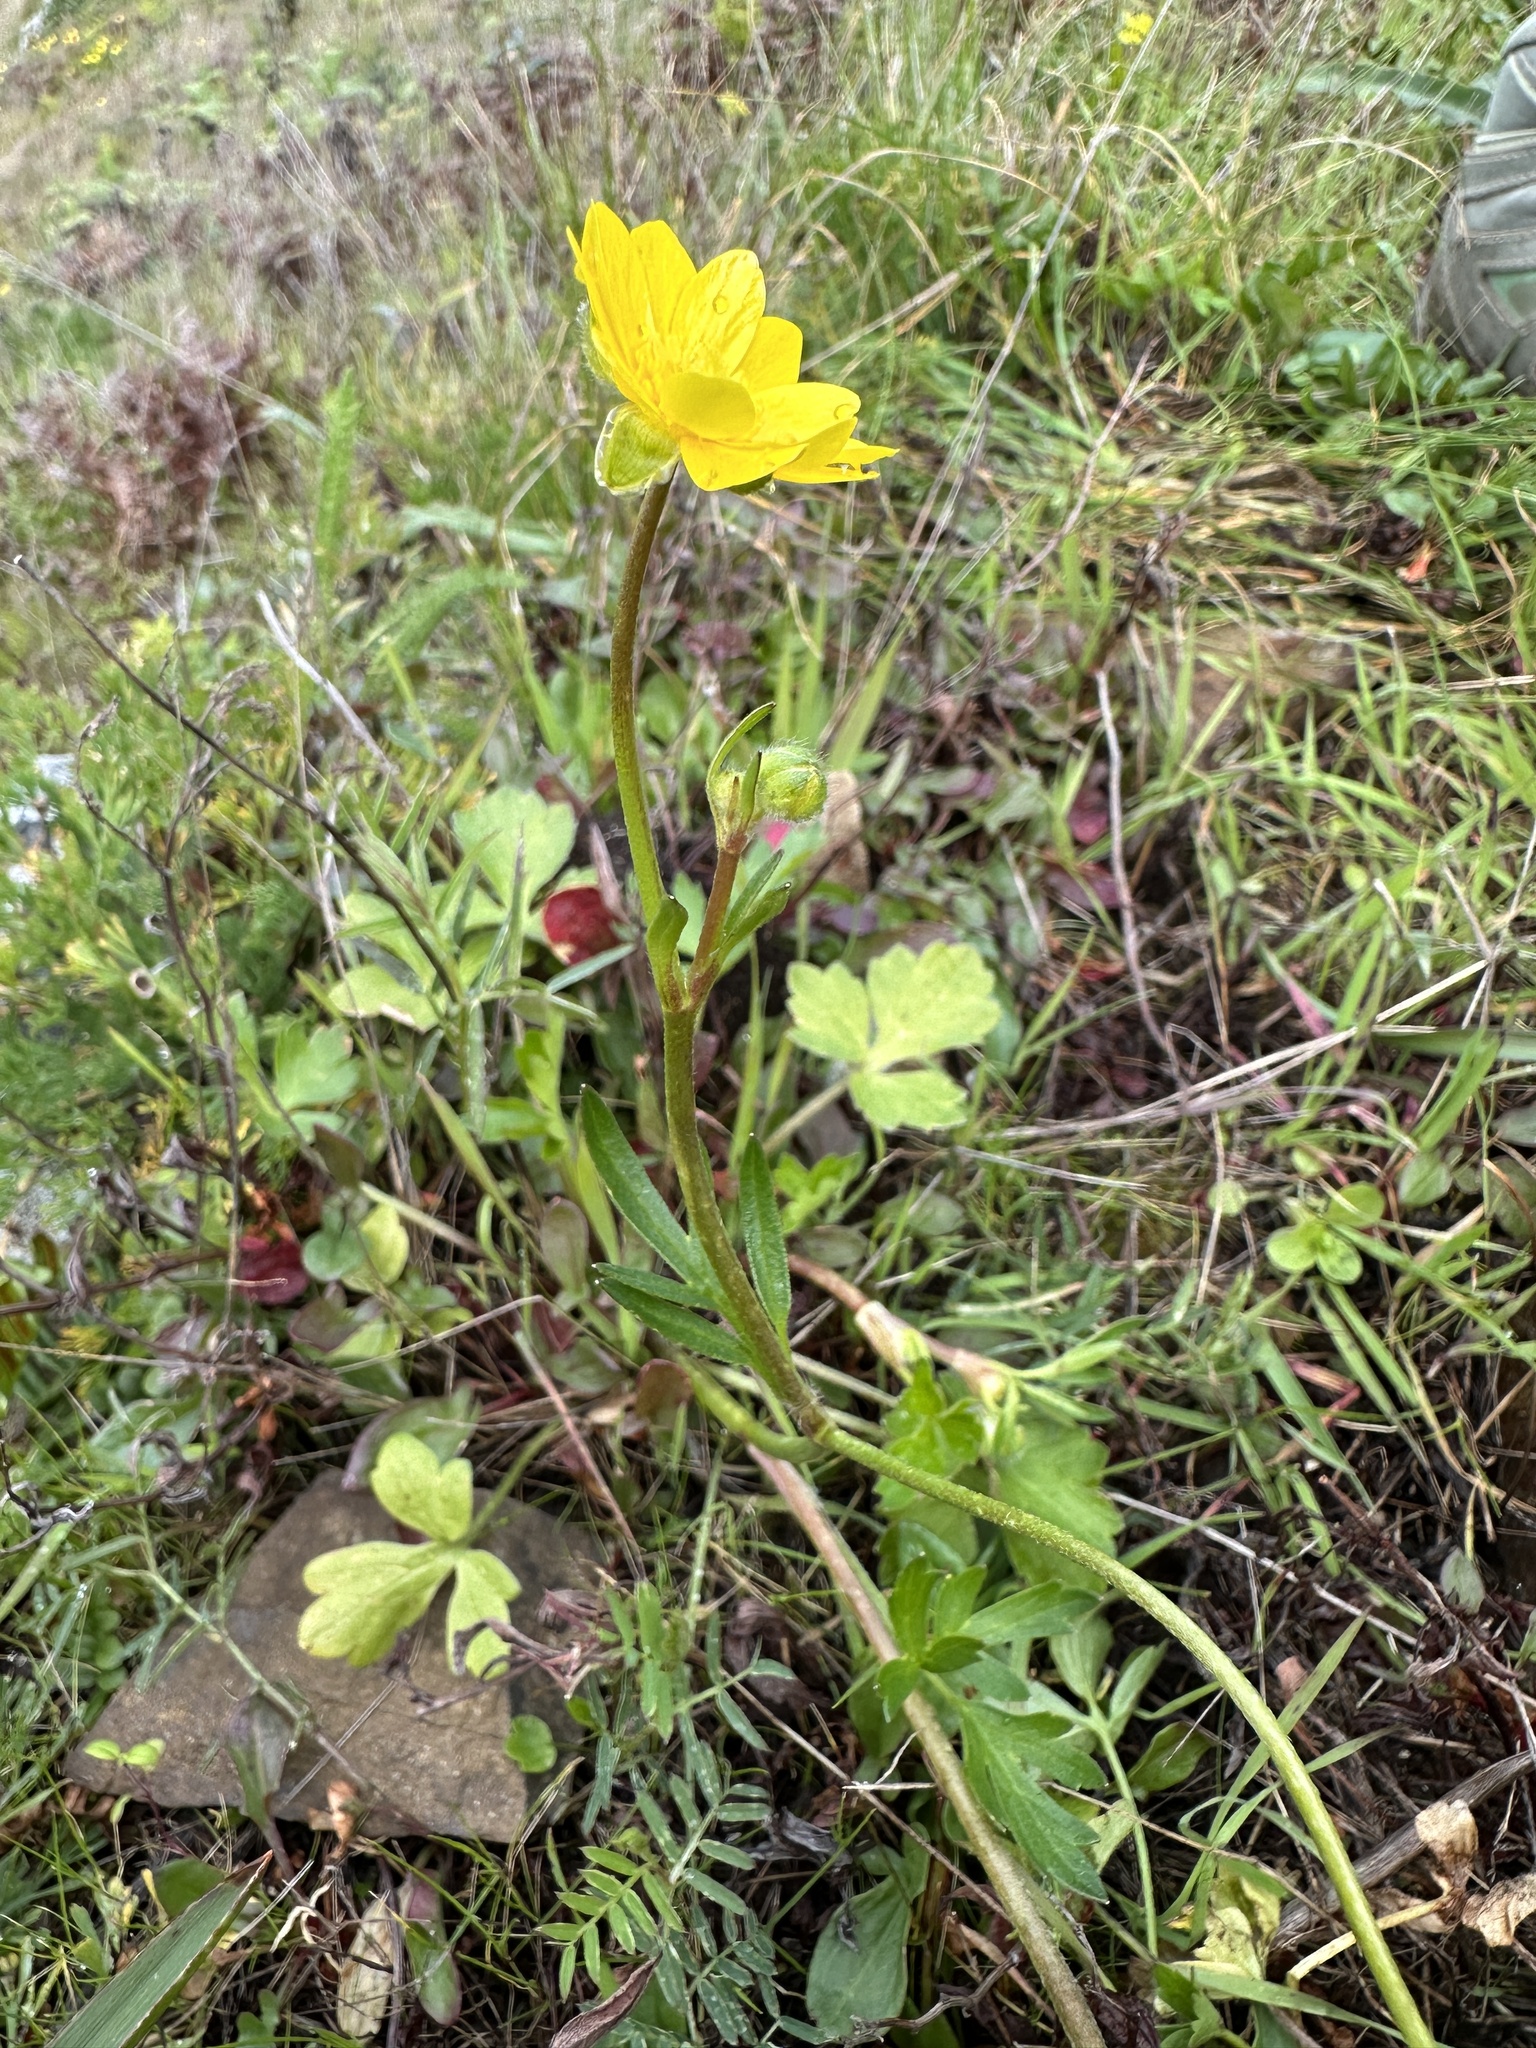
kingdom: Plantae
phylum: Tracheophyta
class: Magnoliopsida
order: Ranunculales
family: Ranunculaceae
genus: Ranunculus
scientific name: Ranunculus californicus
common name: California buttercup
